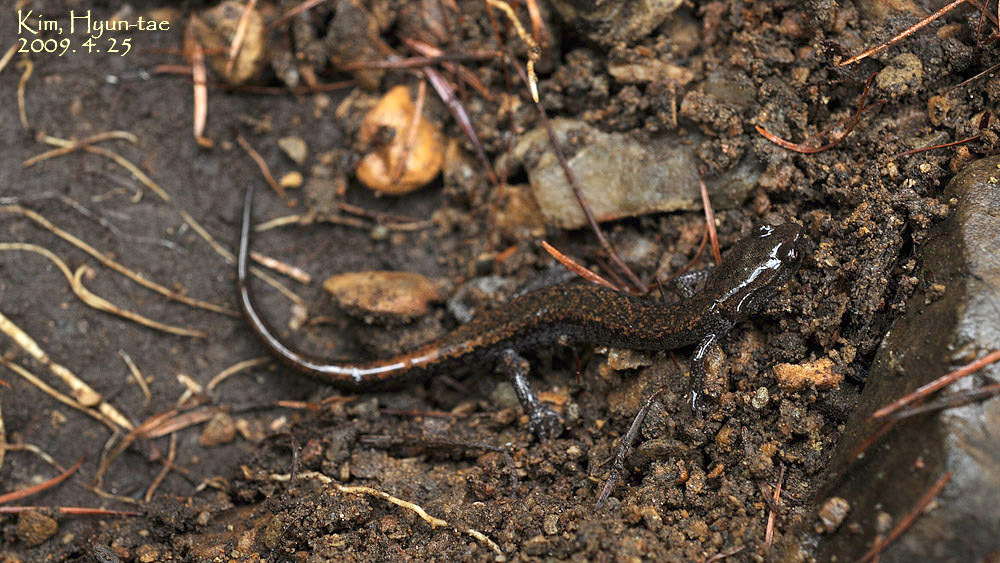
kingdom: Animalia
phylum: Chordata
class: Amphibia
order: Caudata
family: Plethodontidae
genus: Karsenia
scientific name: Karsenia koreana
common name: Korean crevice salamander
